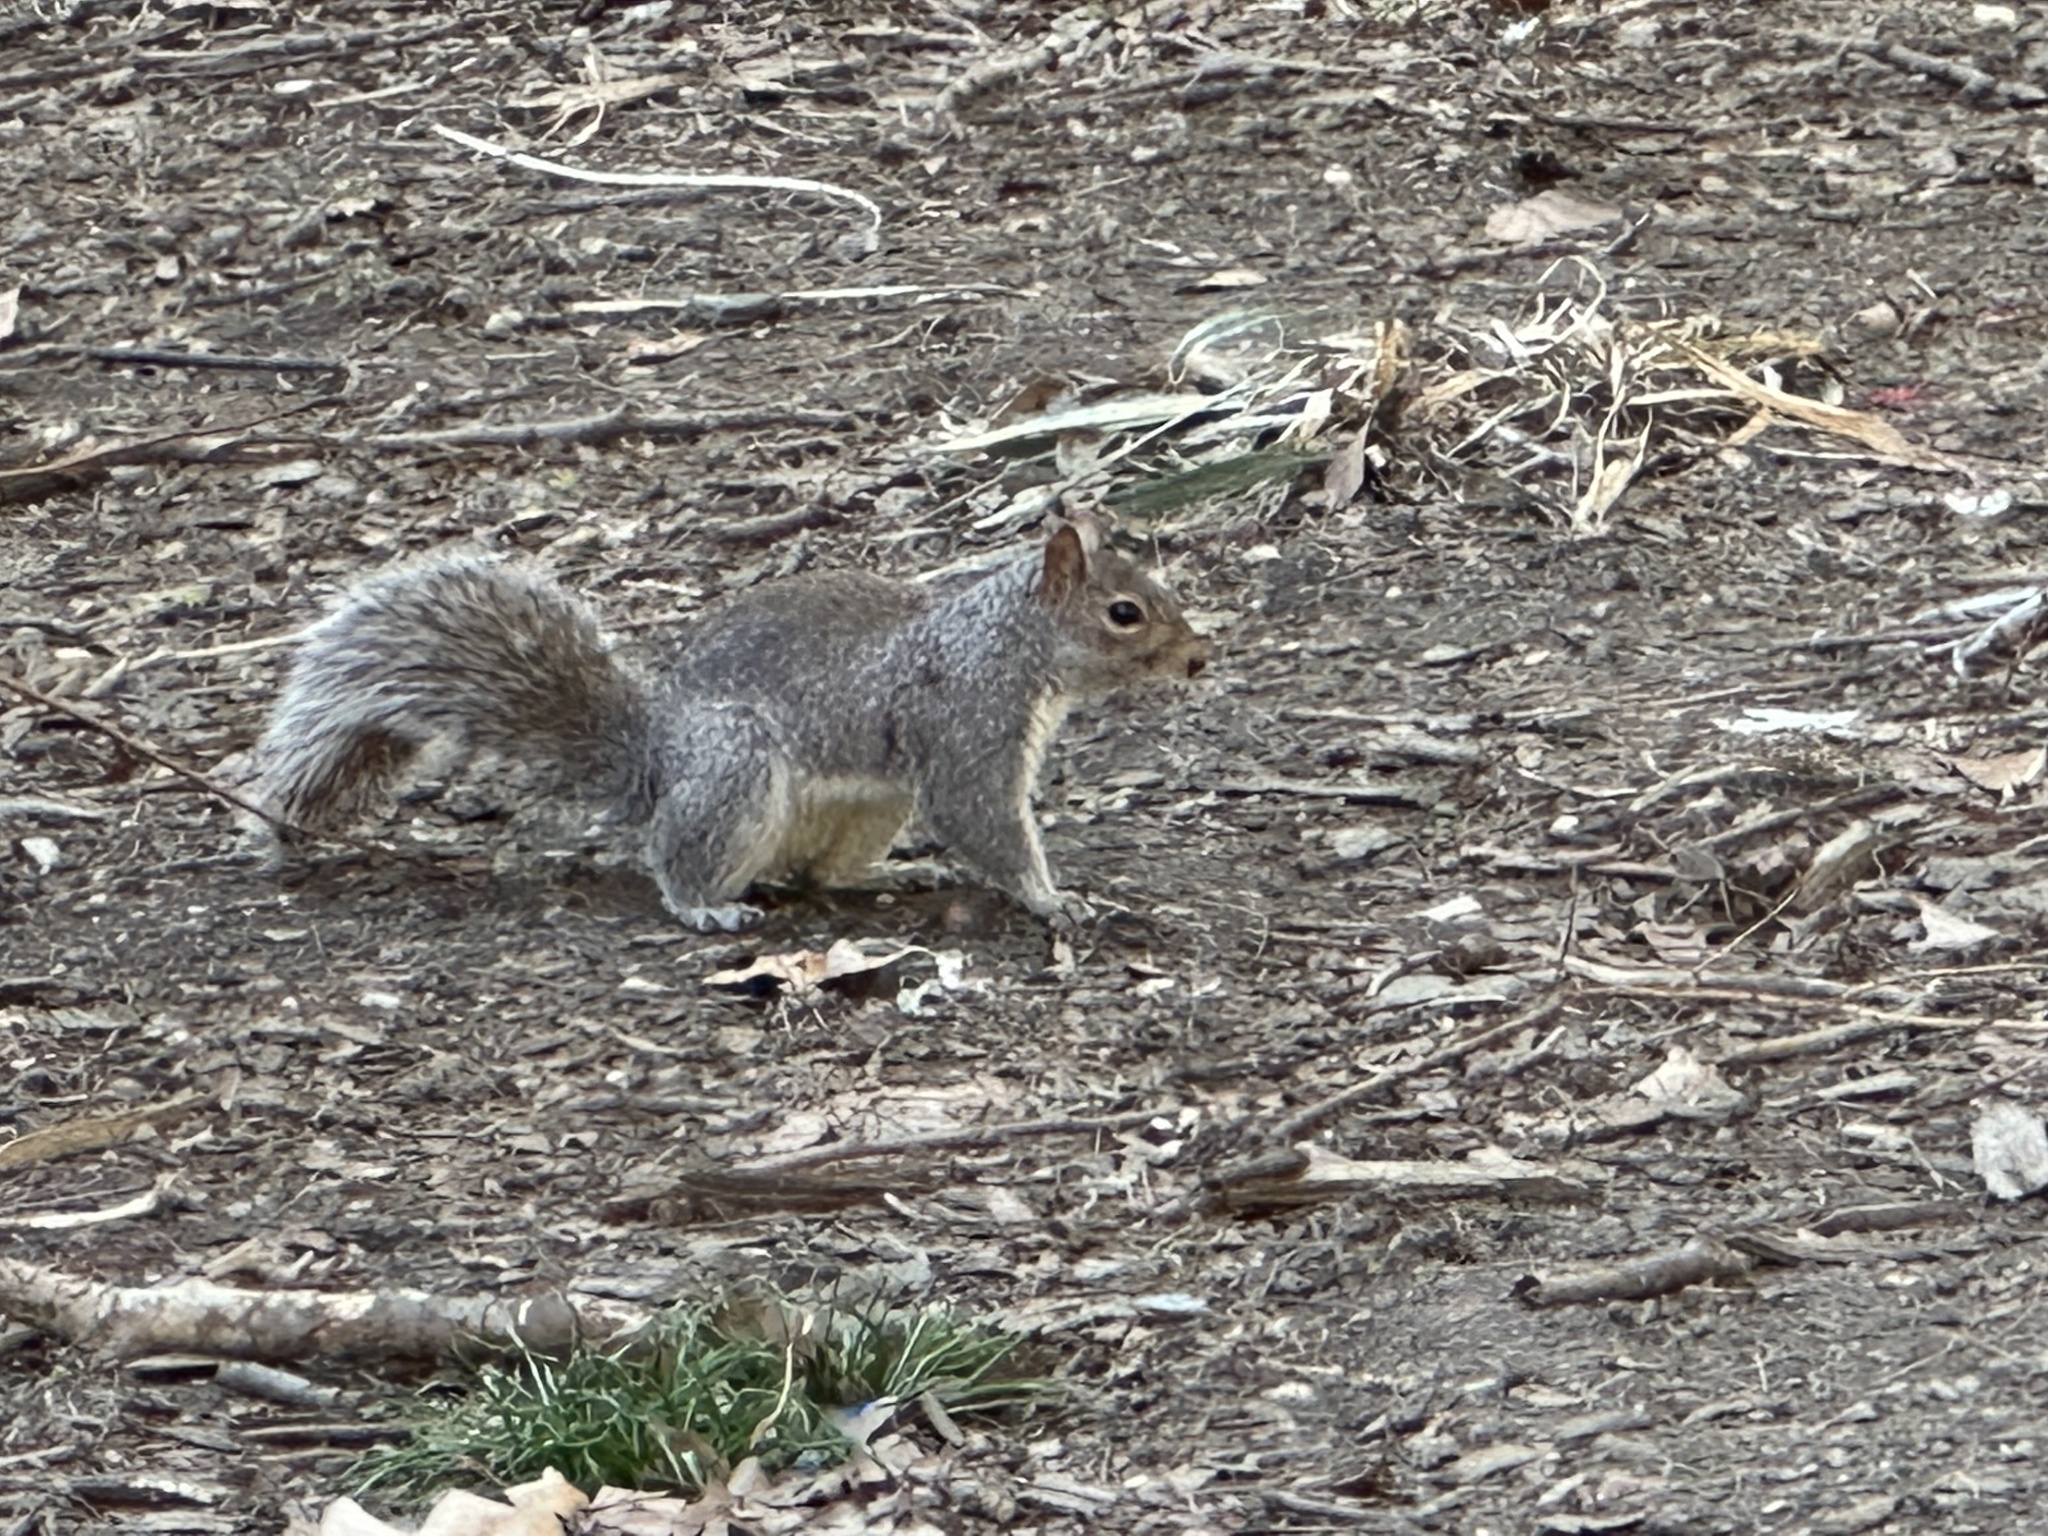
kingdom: Animalia
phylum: Chordata
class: Mammalia
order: Rodentia
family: Sciuridae
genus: Sciurus
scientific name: Sciurus carolinensis
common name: Eastern gray squirrel
